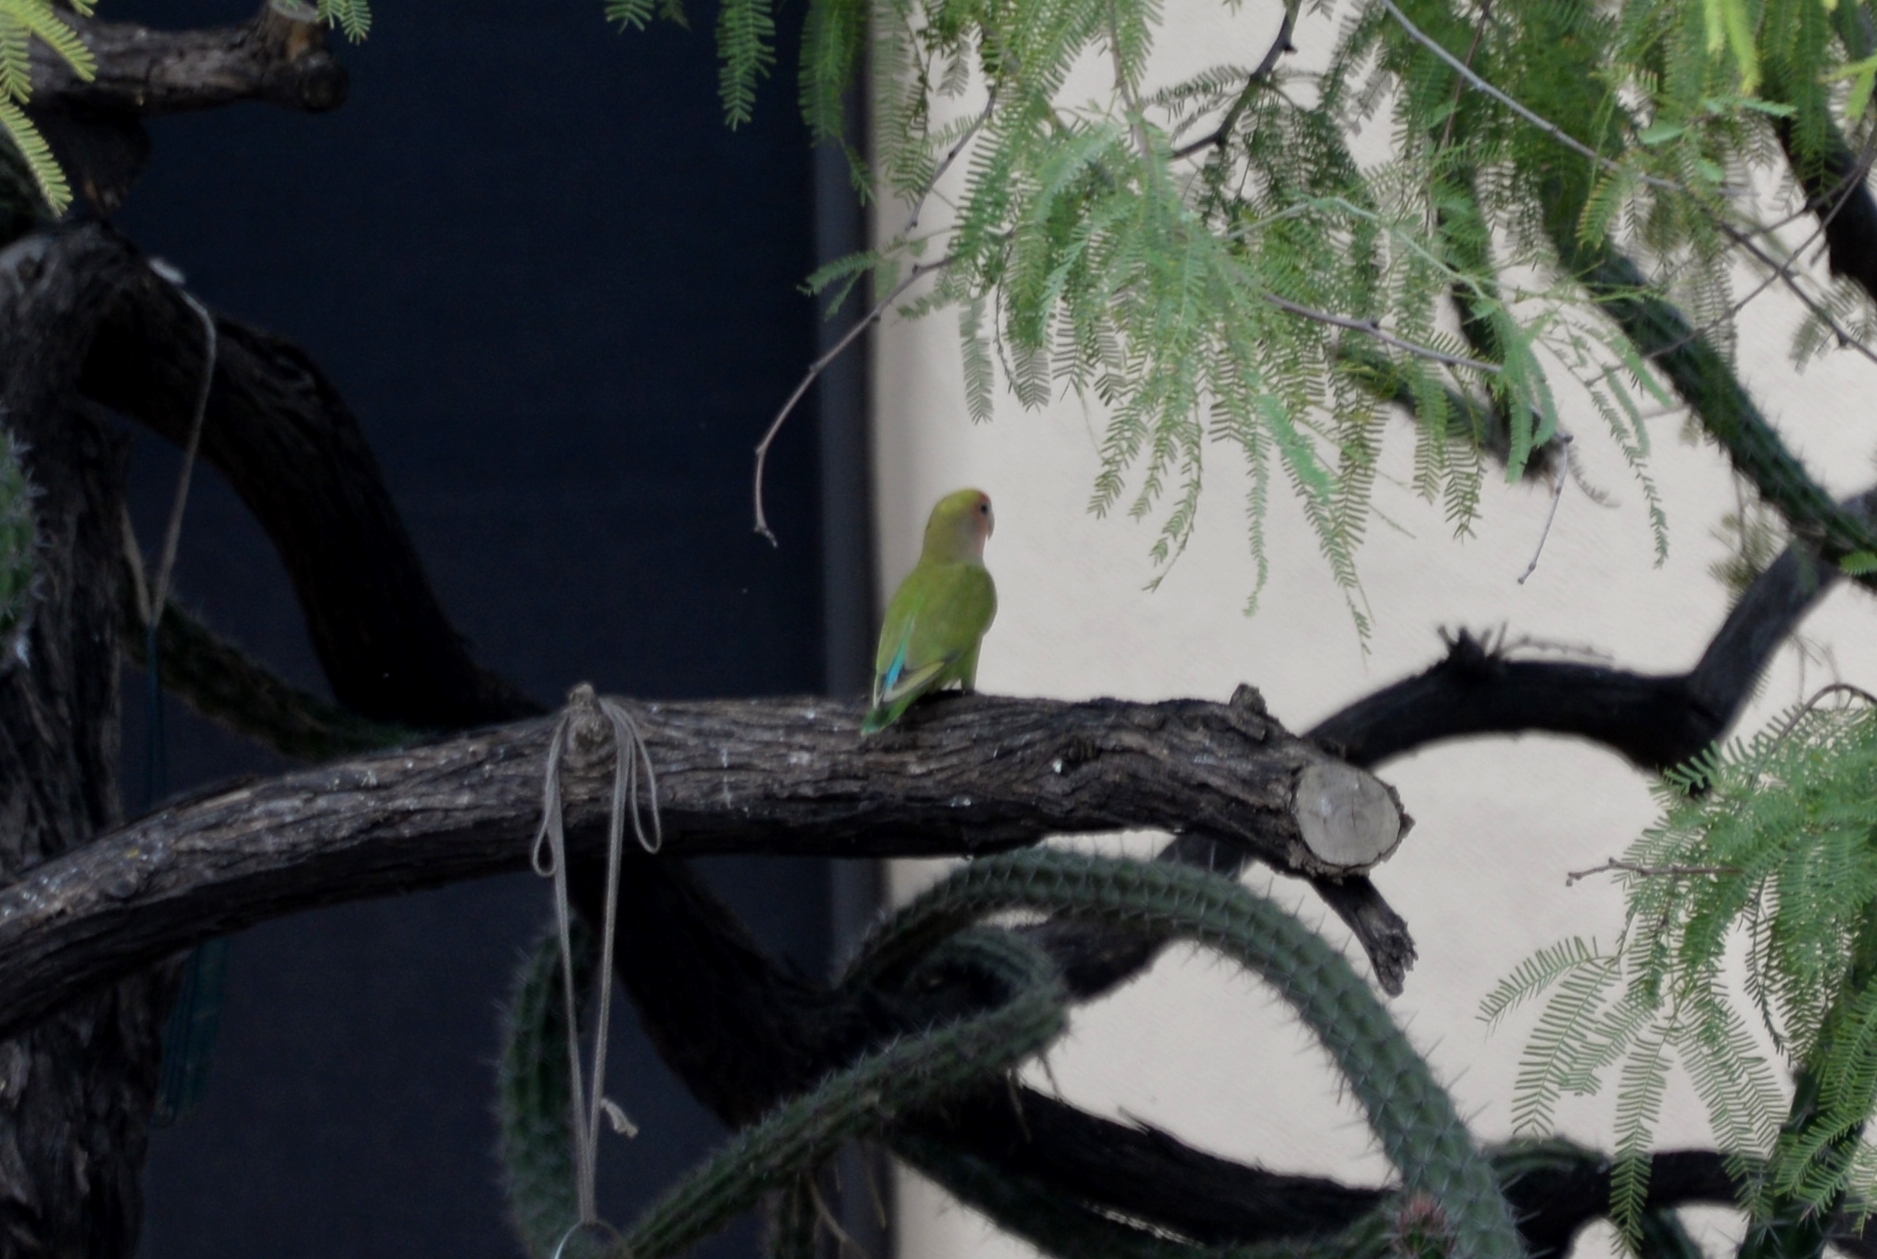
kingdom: Animalia
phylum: Chordata
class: Aves
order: Psittaciformes
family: Psittacidae
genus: Agapornis
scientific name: Agapornis roseicollis
